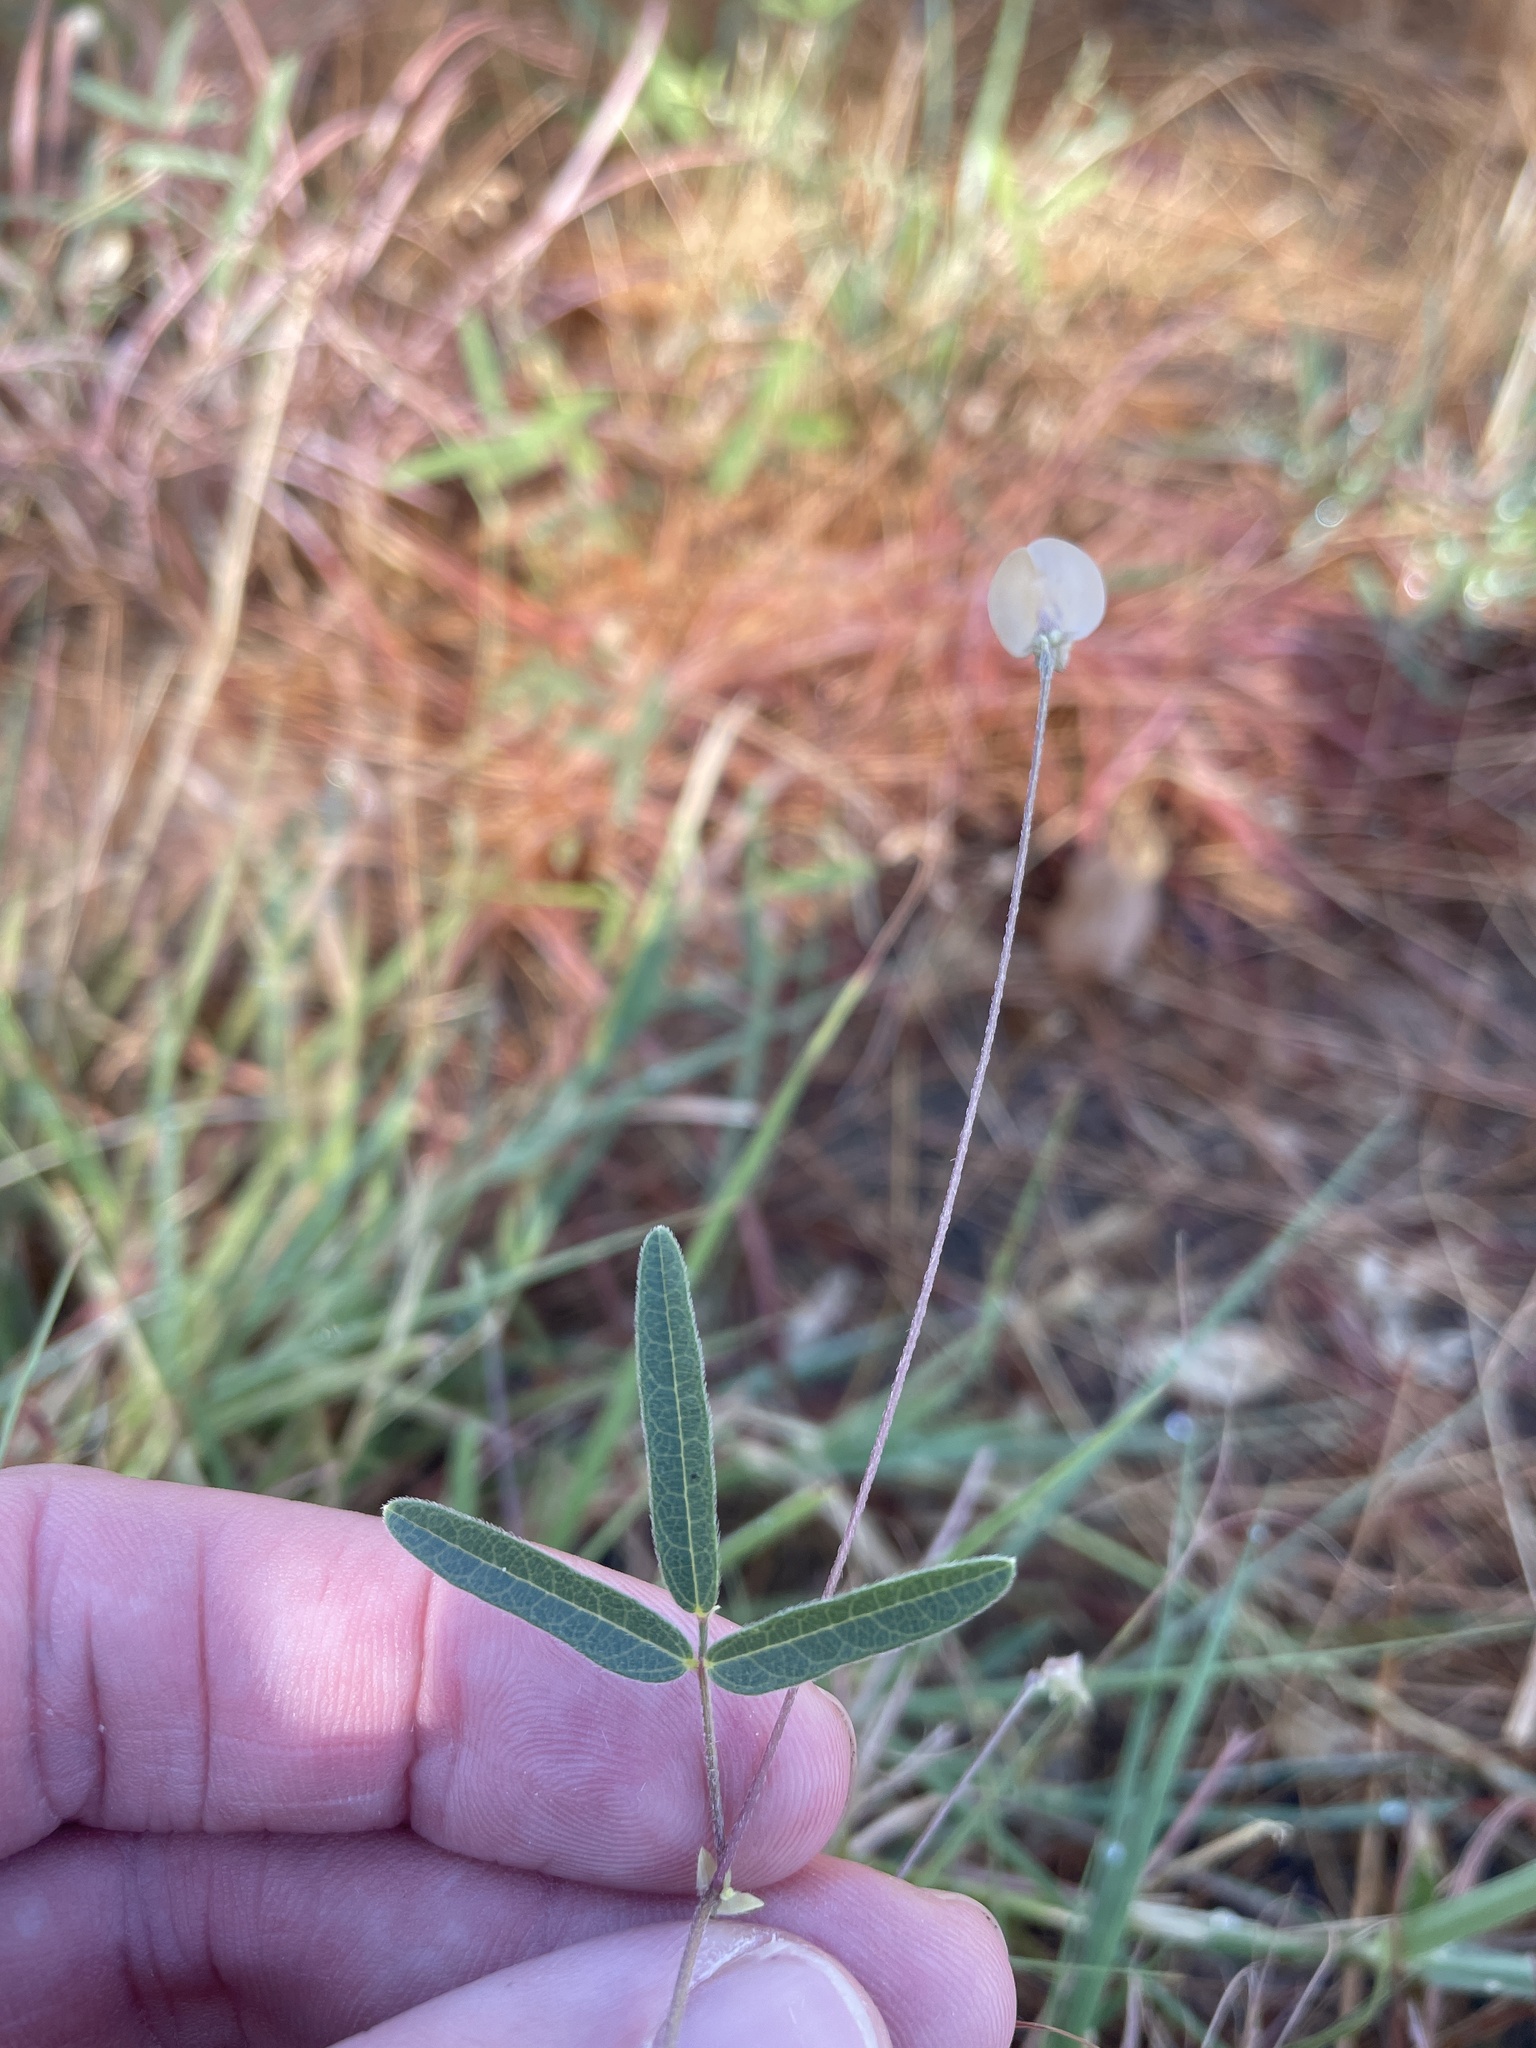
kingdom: Plantae
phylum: Tracheophyta
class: Magnoliopsida
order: Fabales
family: Fabaceae
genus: Strophostyles
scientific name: Strophostyles leiosperma
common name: Smooth-seed wild bean
